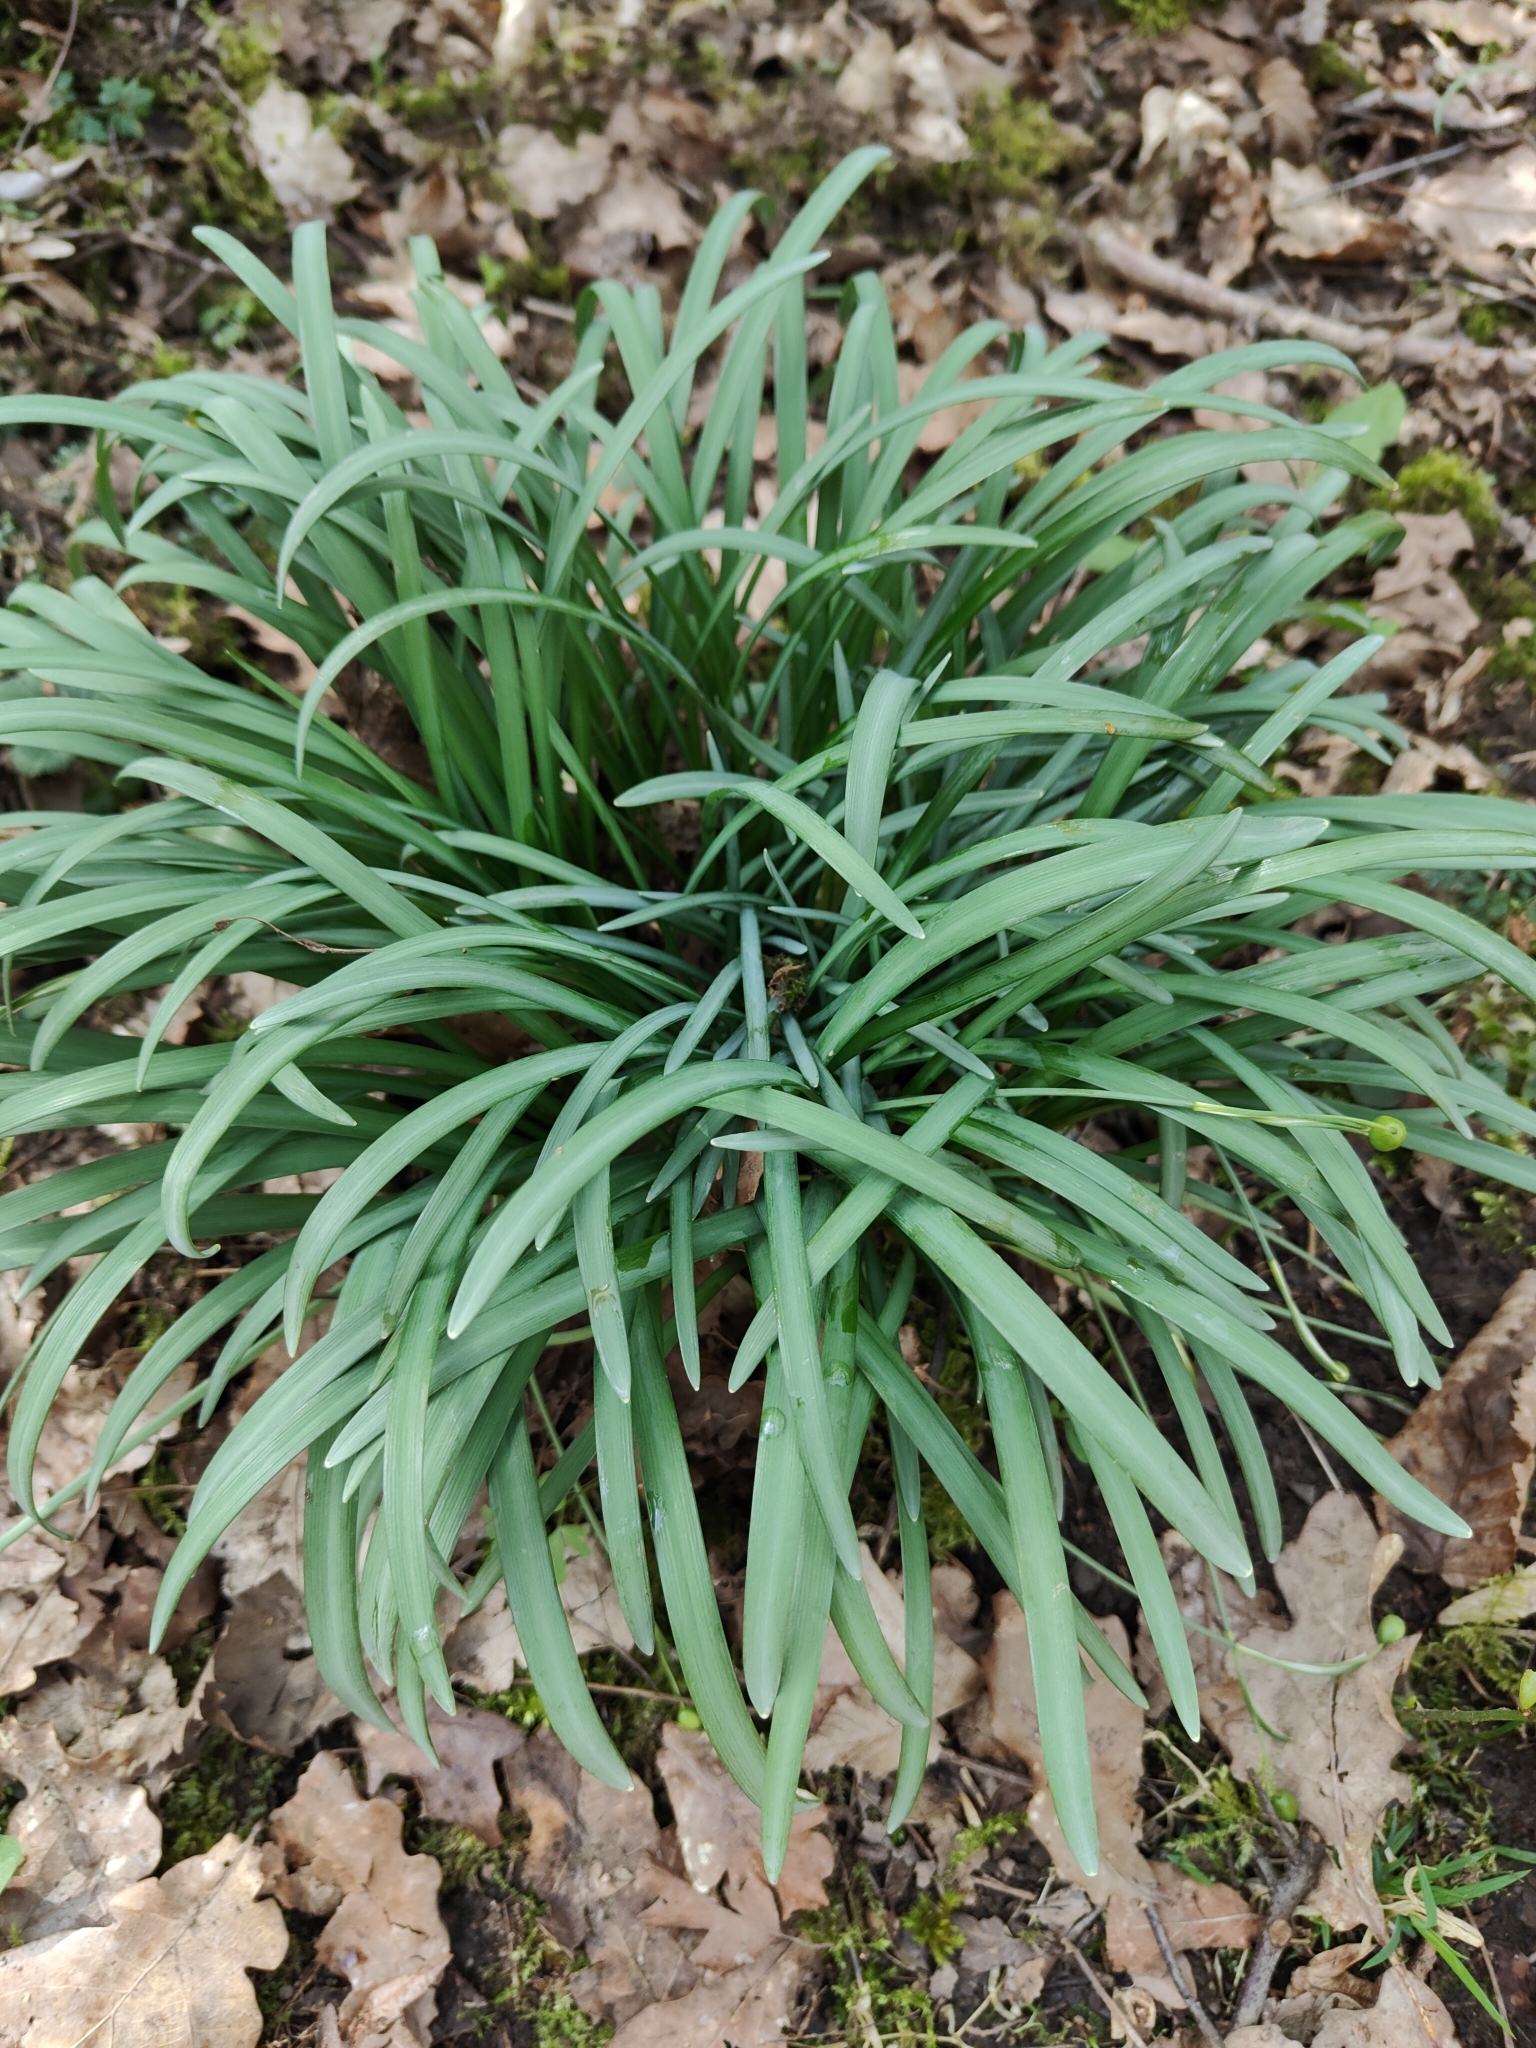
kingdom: Plantae
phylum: Tracheophyta
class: Liliopsida
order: Asparagales
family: Amaryllidaceae
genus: Galanthus
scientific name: Galanthus nivalis
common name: Snowdrop
